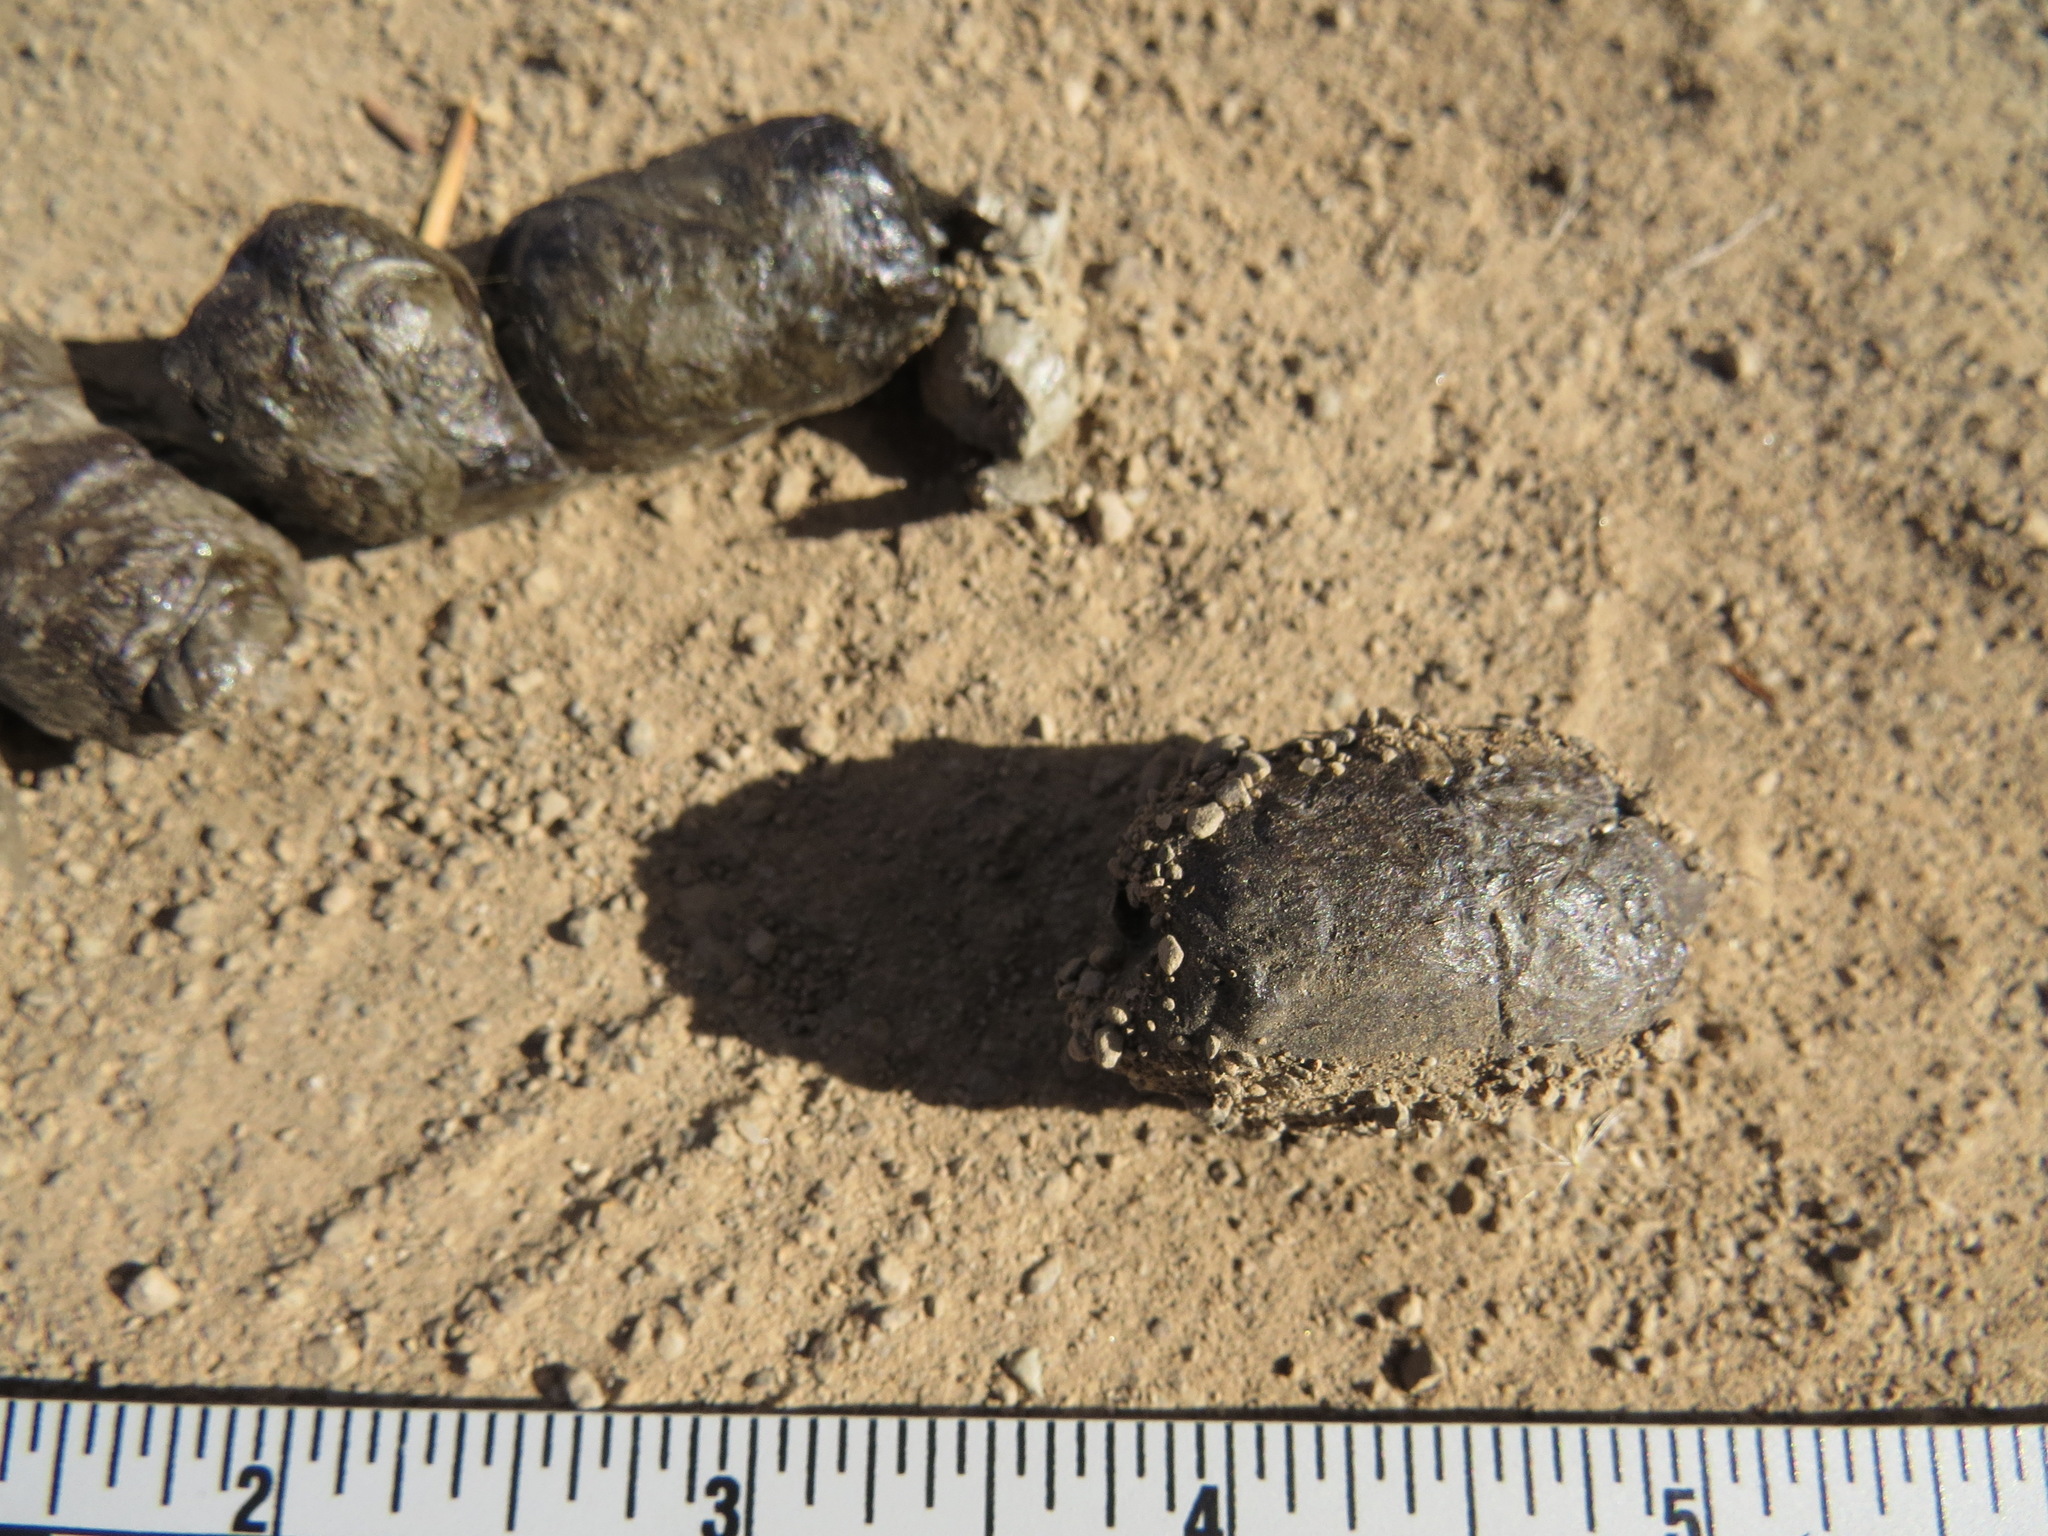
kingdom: Animalia
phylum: Chordata
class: Mammalia
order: Carnivora
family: Felidae
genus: Lynx
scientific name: Lynx rufus
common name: Bobcat
